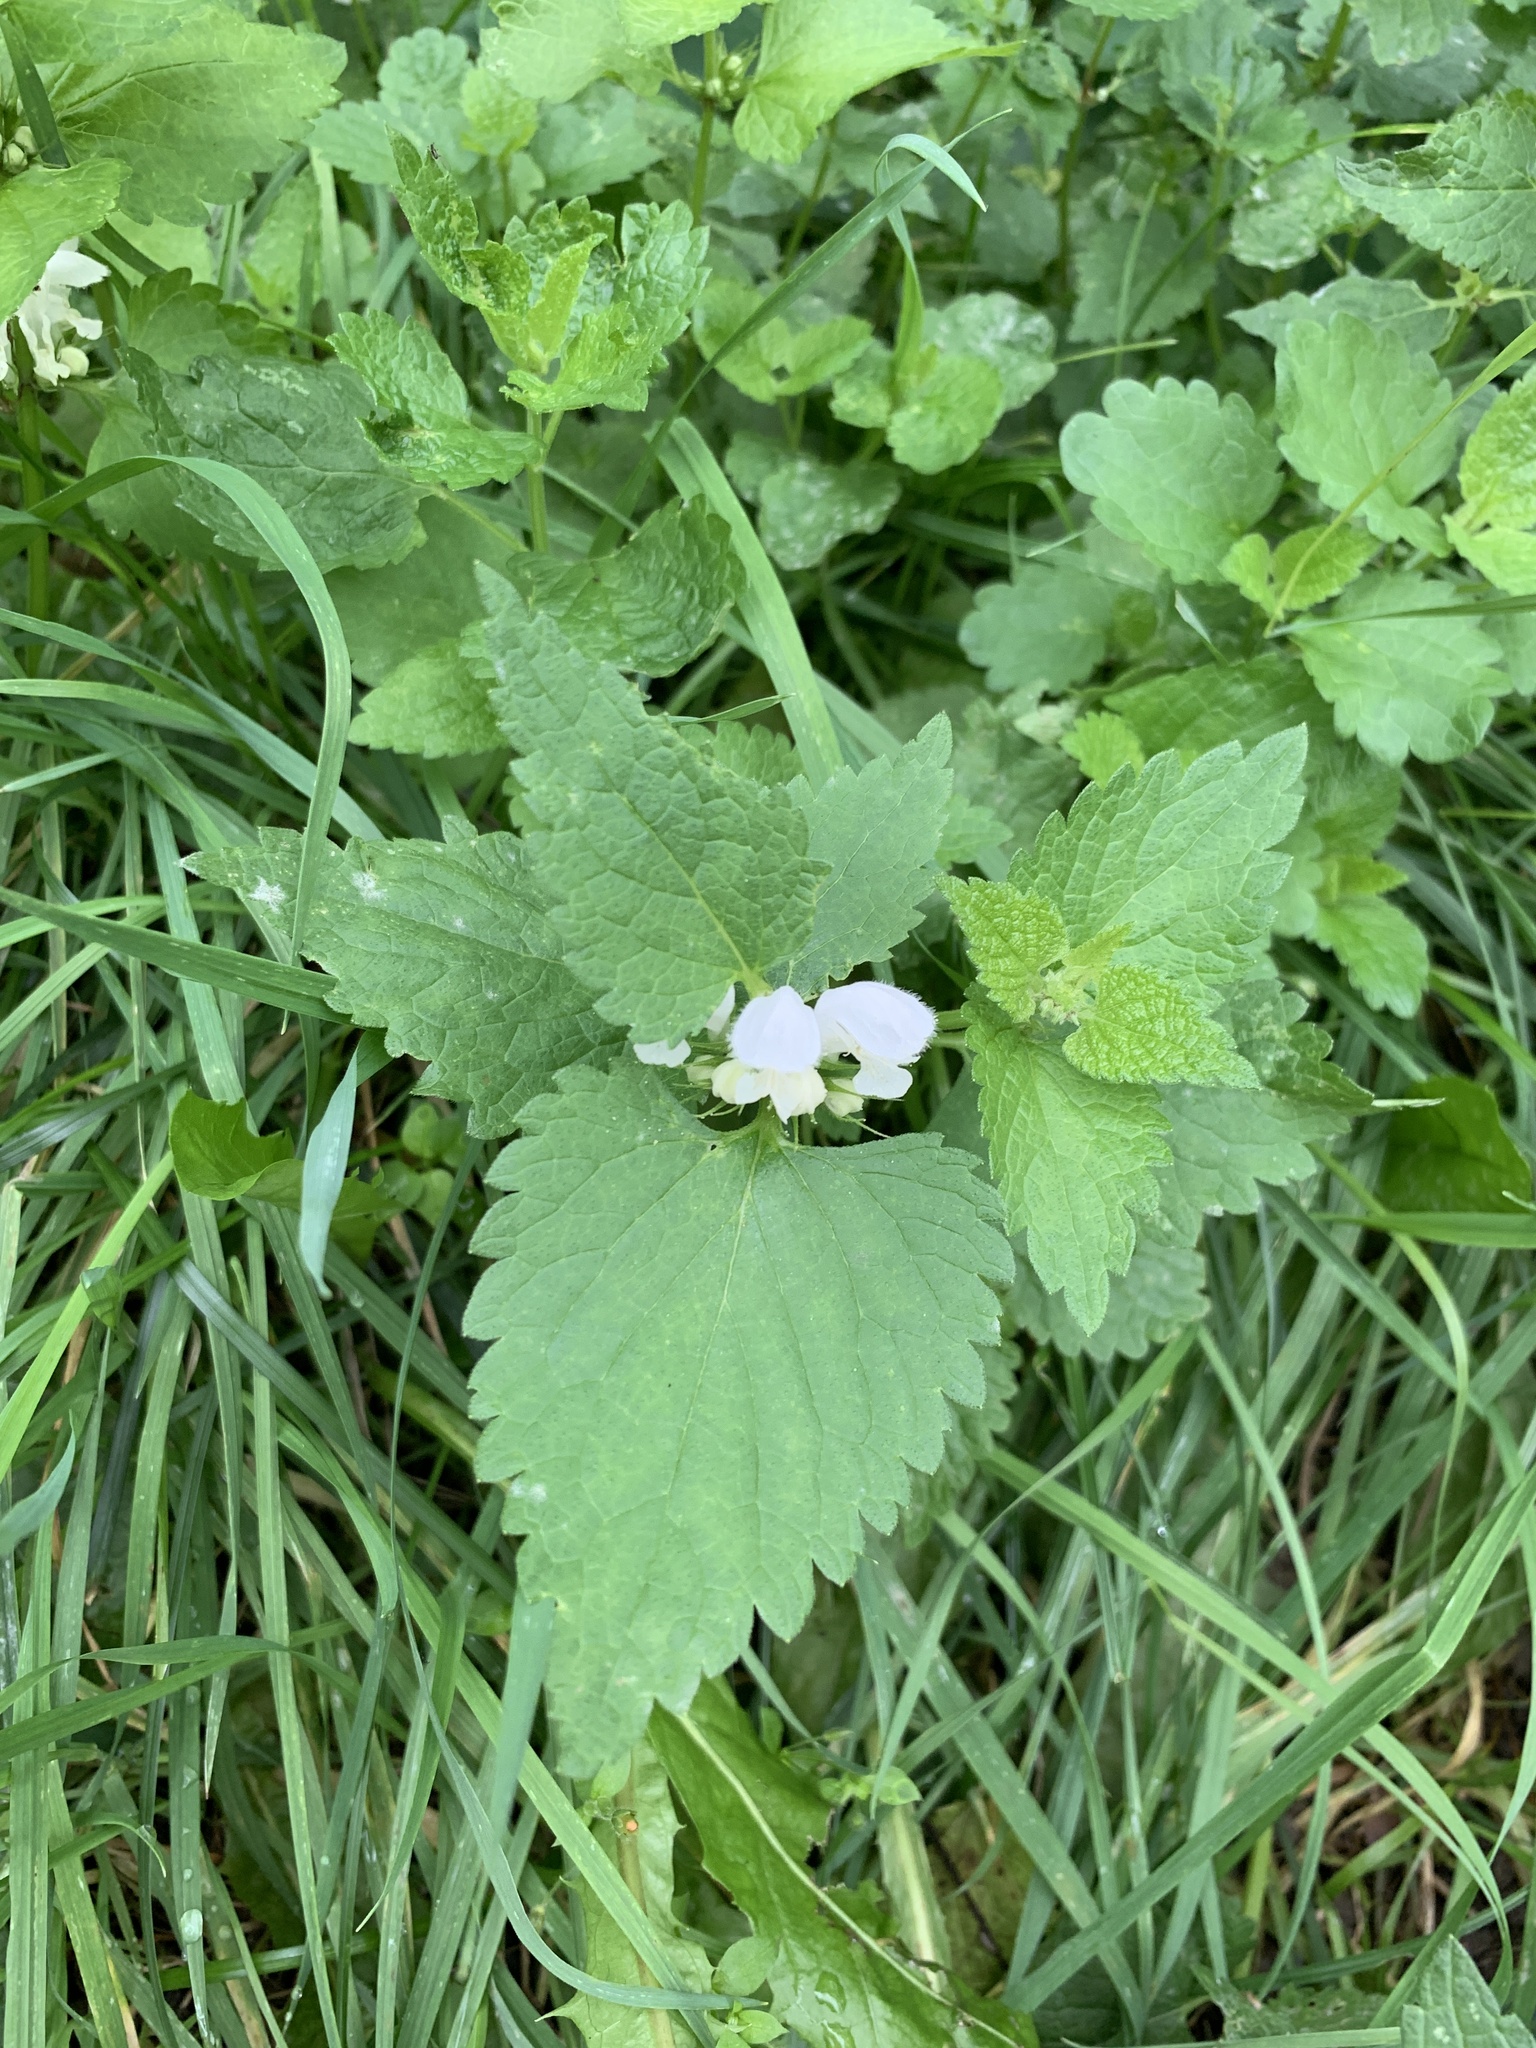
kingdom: Plantae
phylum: Tracheophyta
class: Magnoliopsida
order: Lamiales
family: Lamiaceae
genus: Lamium
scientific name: Lamium album
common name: White dead-nettle
